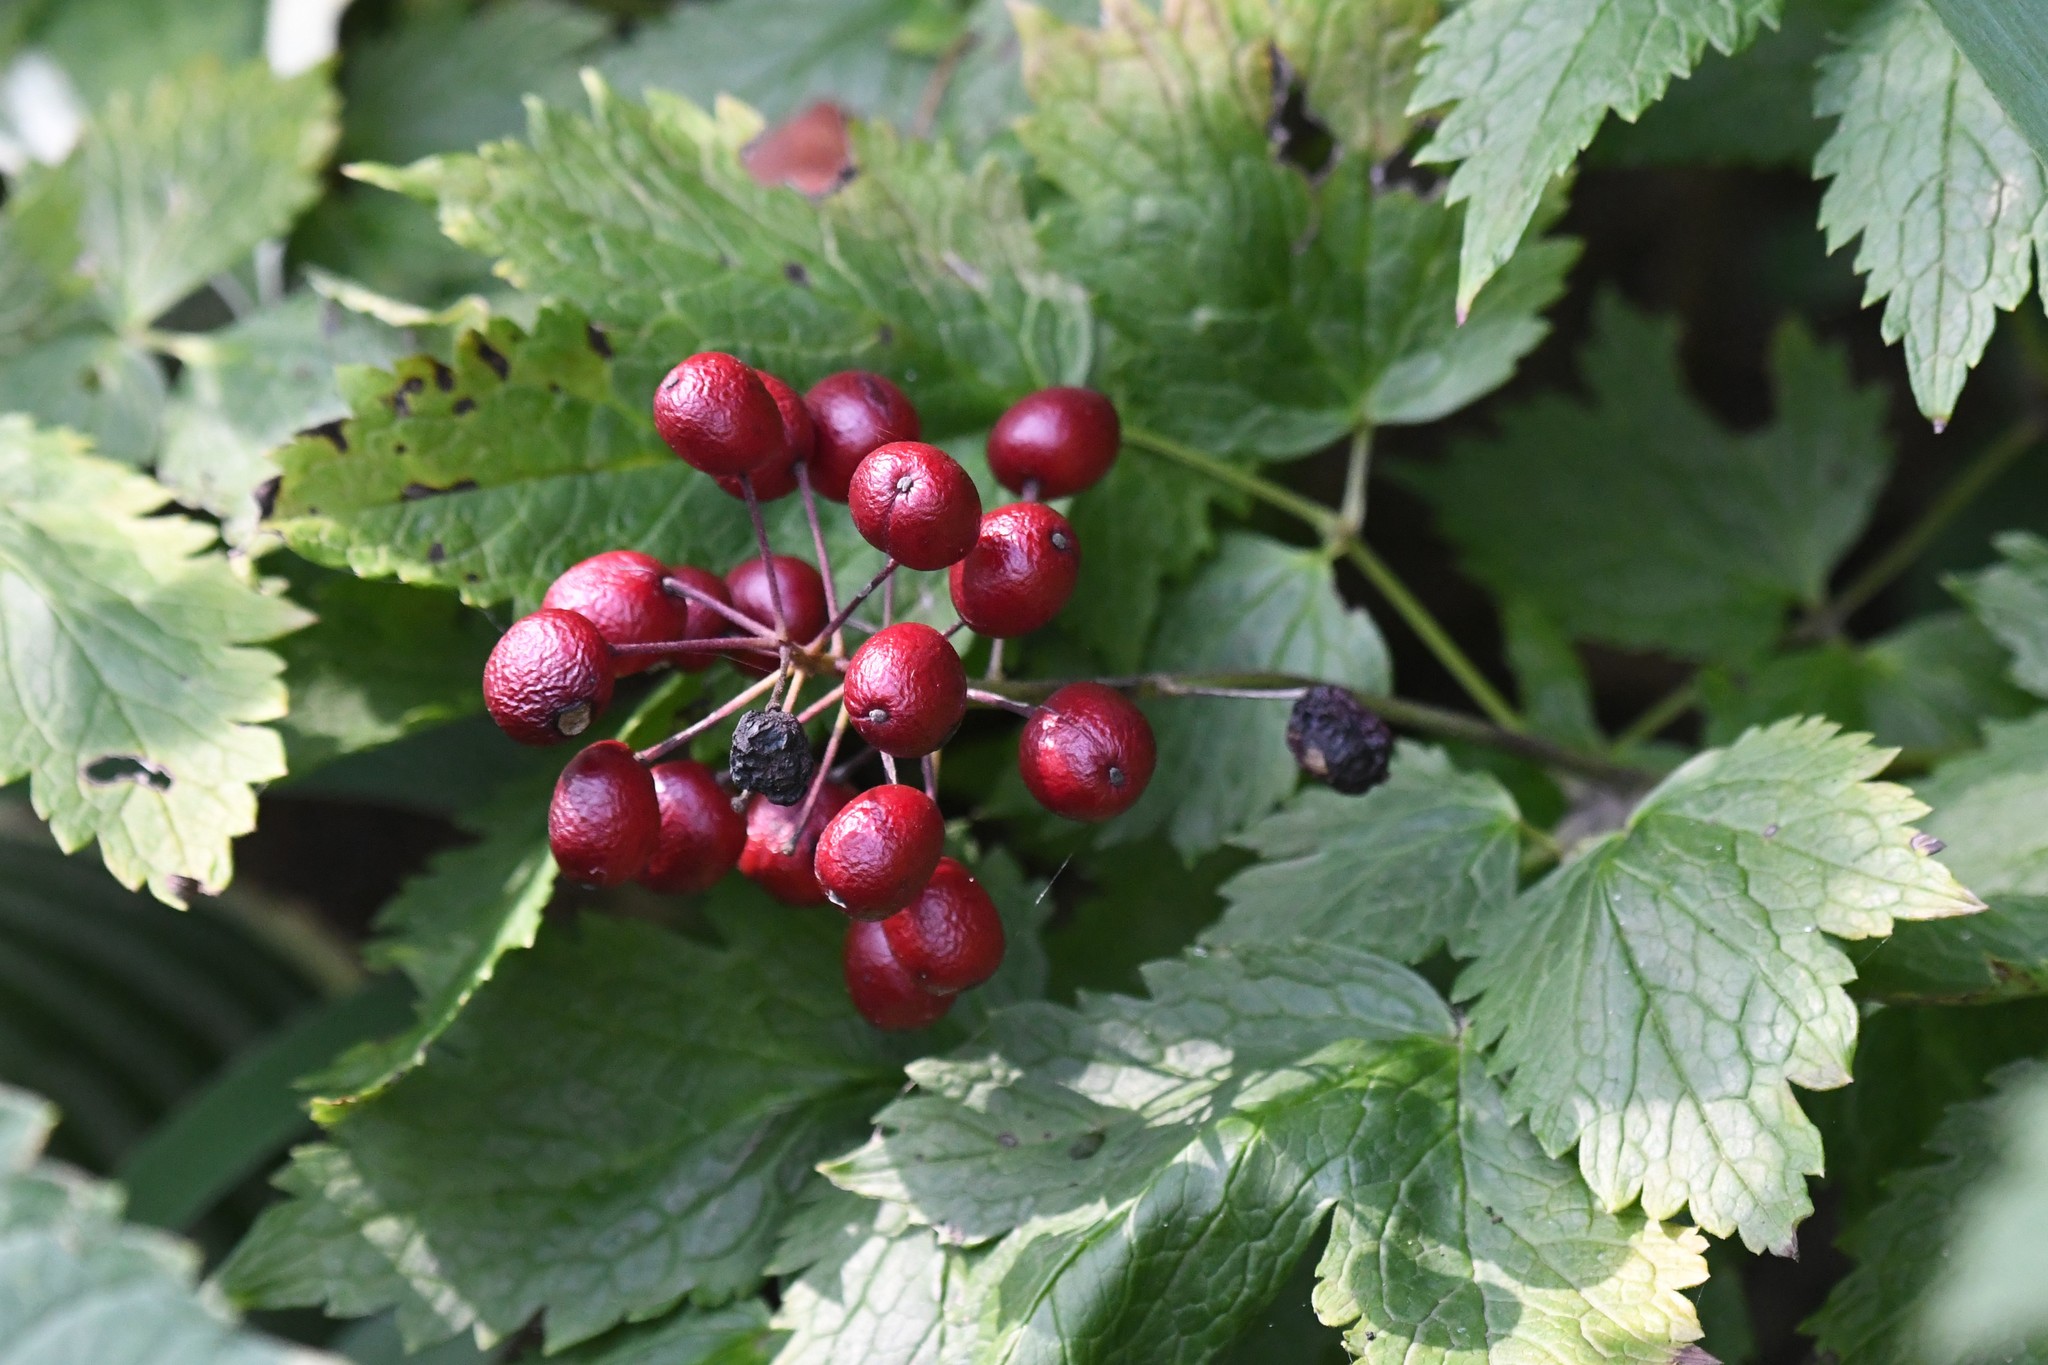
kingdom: Plantae
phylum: Tracheophyta
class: Magnoliopsida
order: Ranunculales
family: Ranunculaceae
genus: Actaea
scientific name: Actaea rubra
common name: Red baneberry
